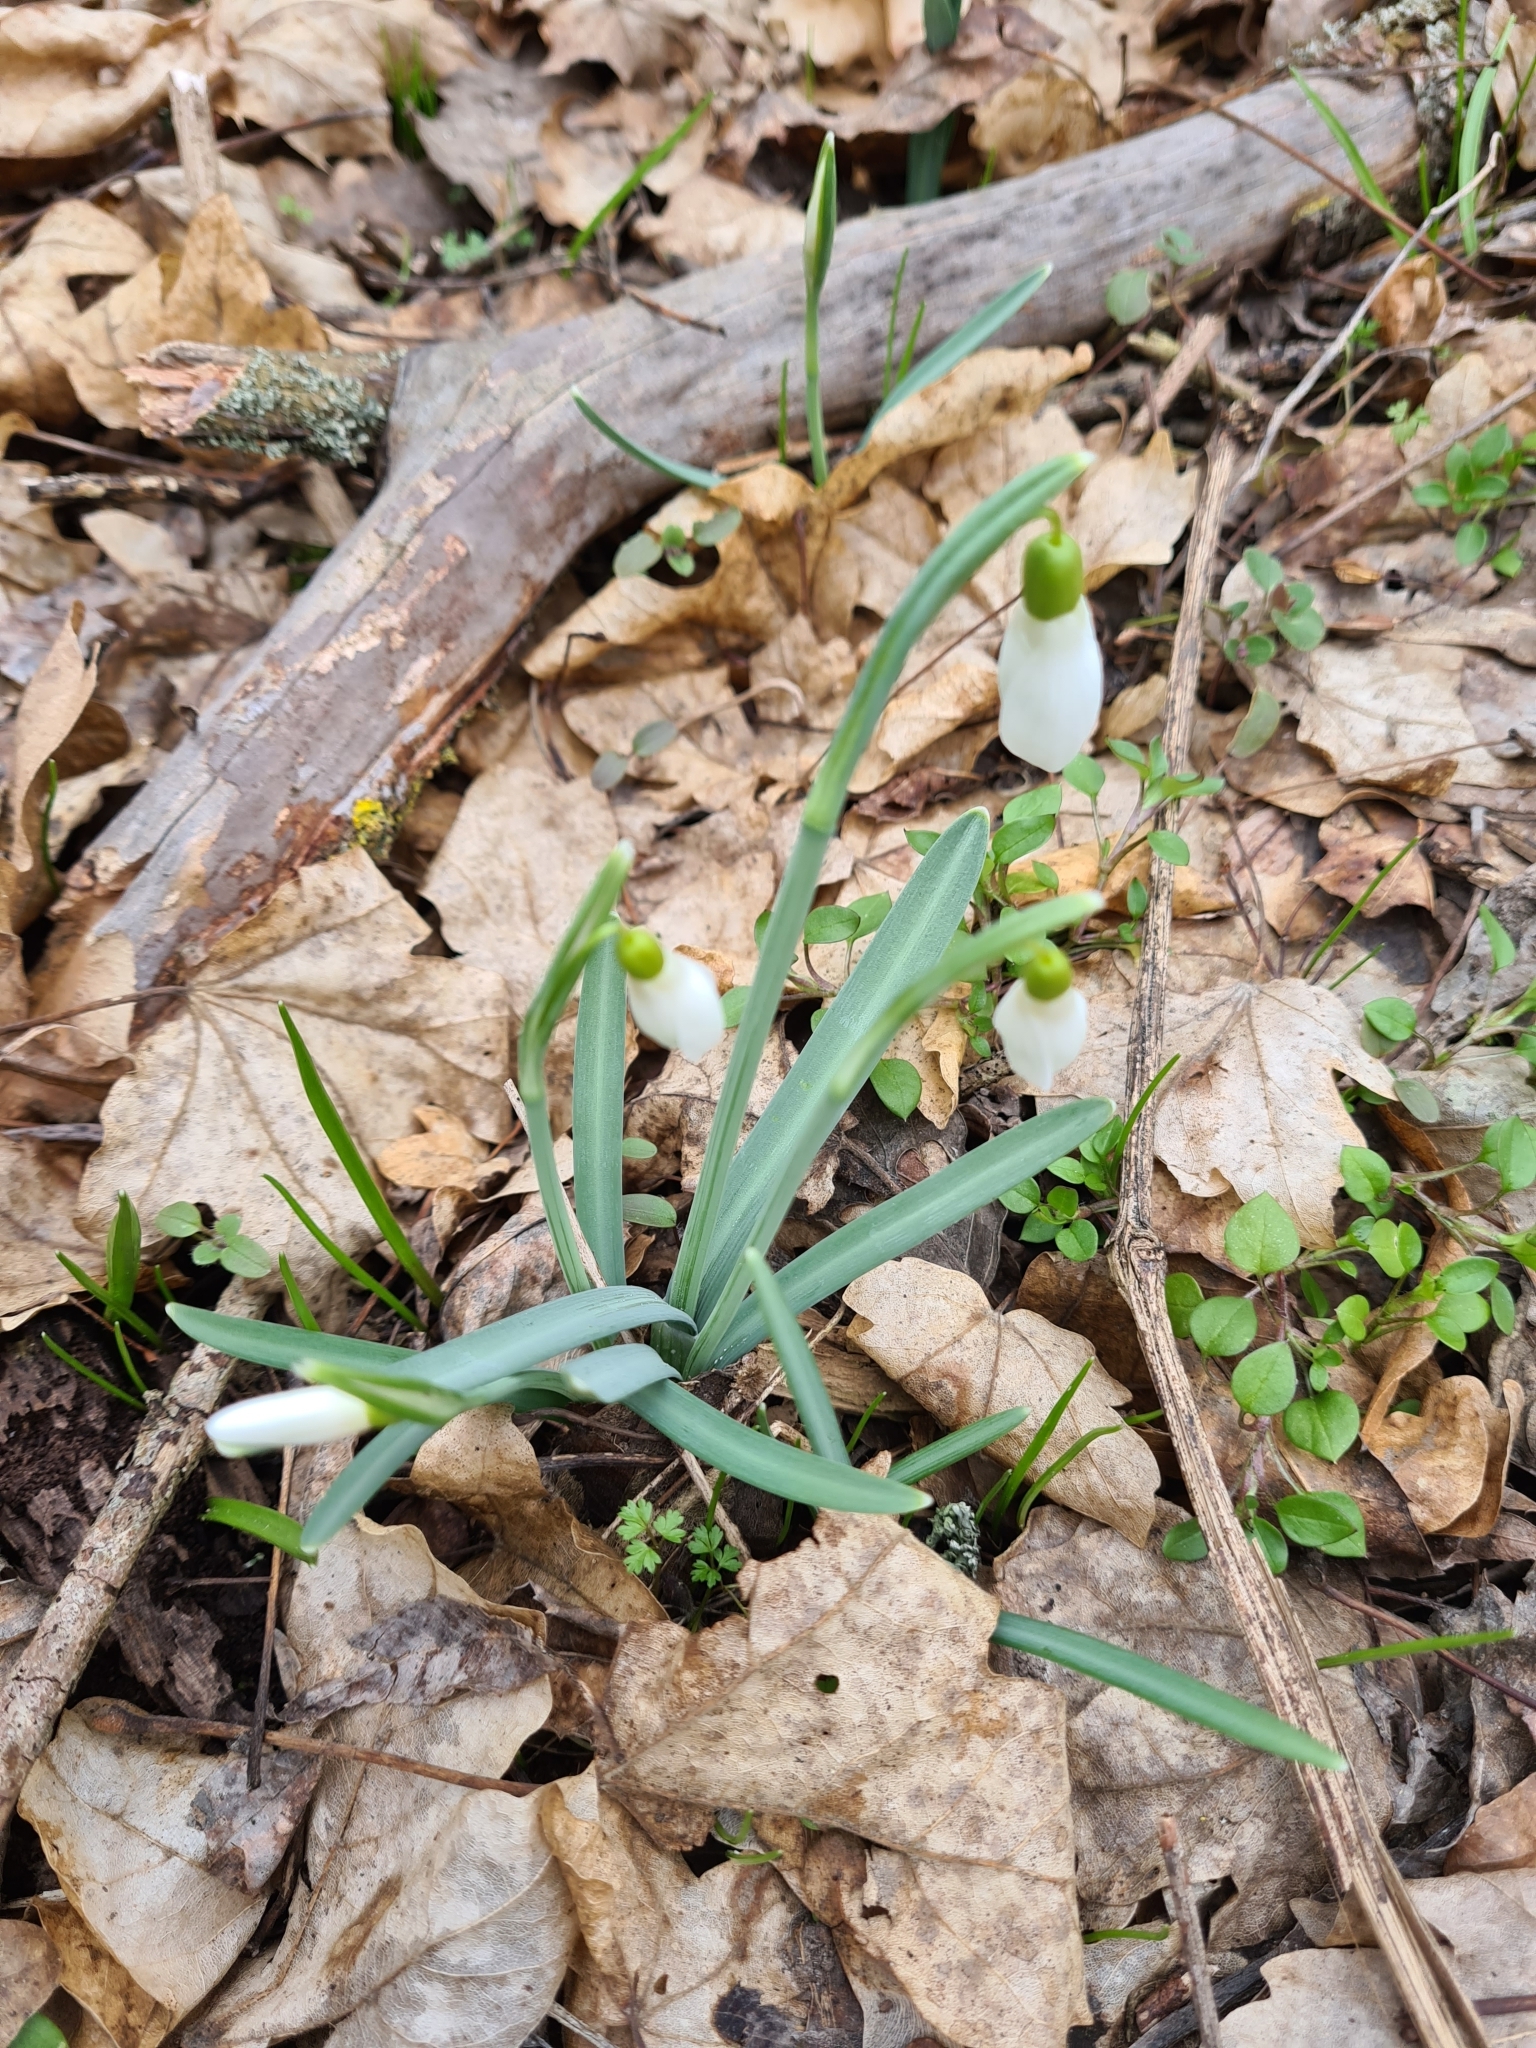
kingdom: Plantae
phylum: Tracheophyta
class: Liliopsida
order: Asparagales
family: Amaryllidaceae
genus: Galanthus
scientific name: Galanthus nivalis
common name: Snowdrop
